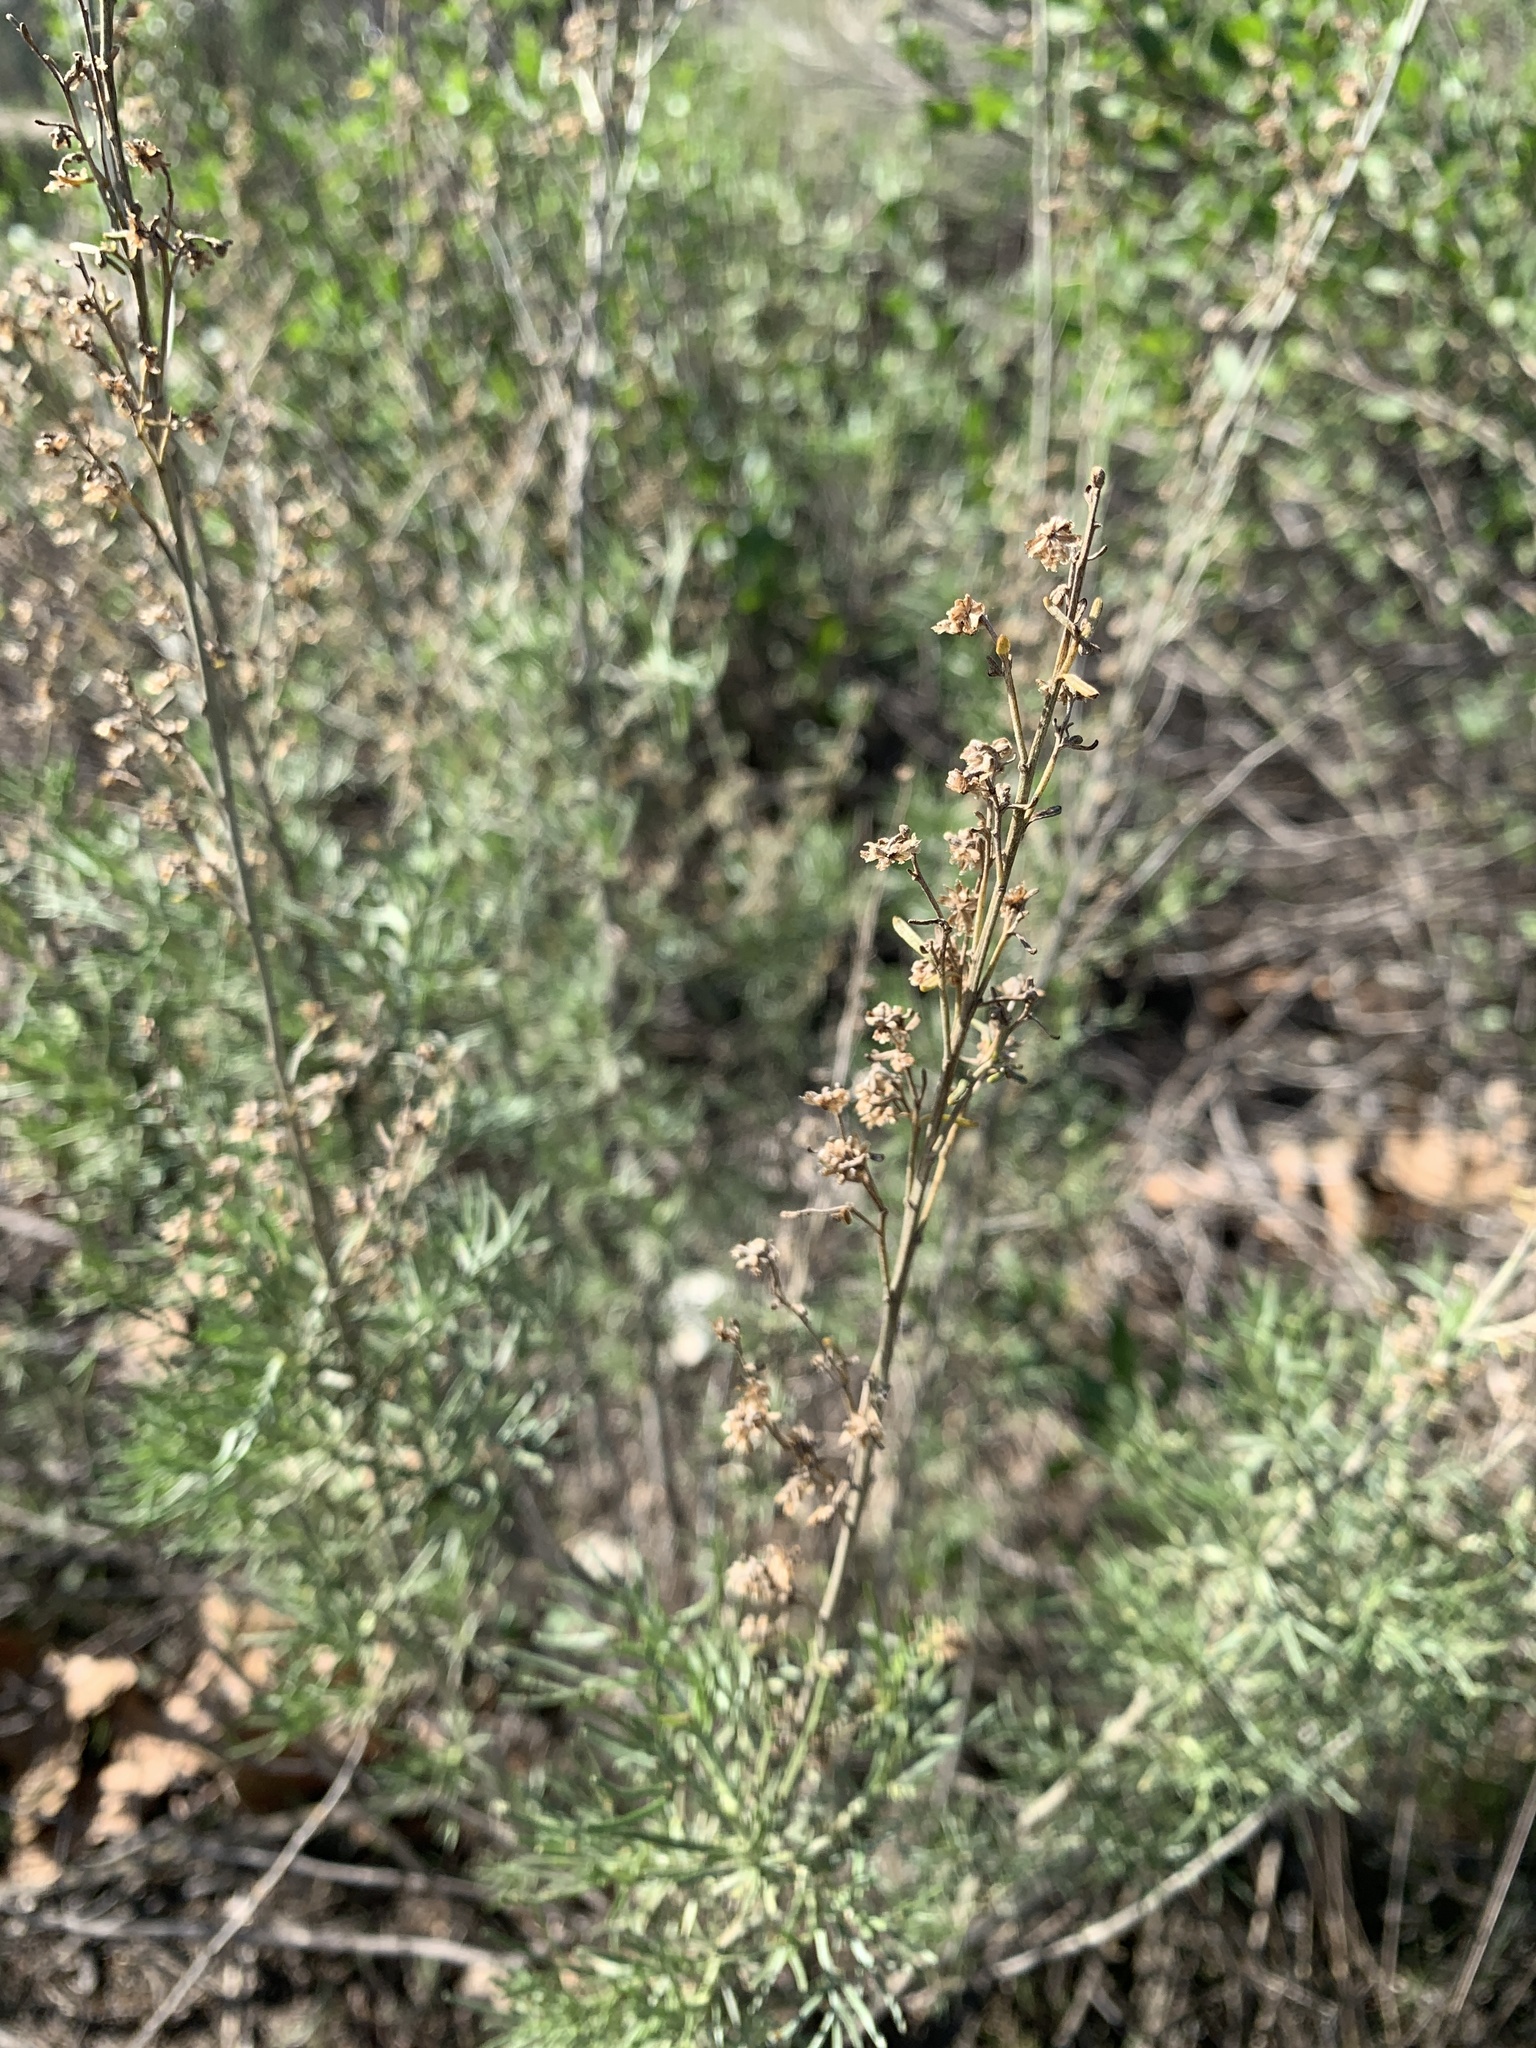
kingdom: Plantae
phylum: Tracheophyta
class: Magnoliopsida
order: Asterales
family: Asteraceae
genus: Artemisia
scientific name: Artemisia californica
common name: California sagebrush
